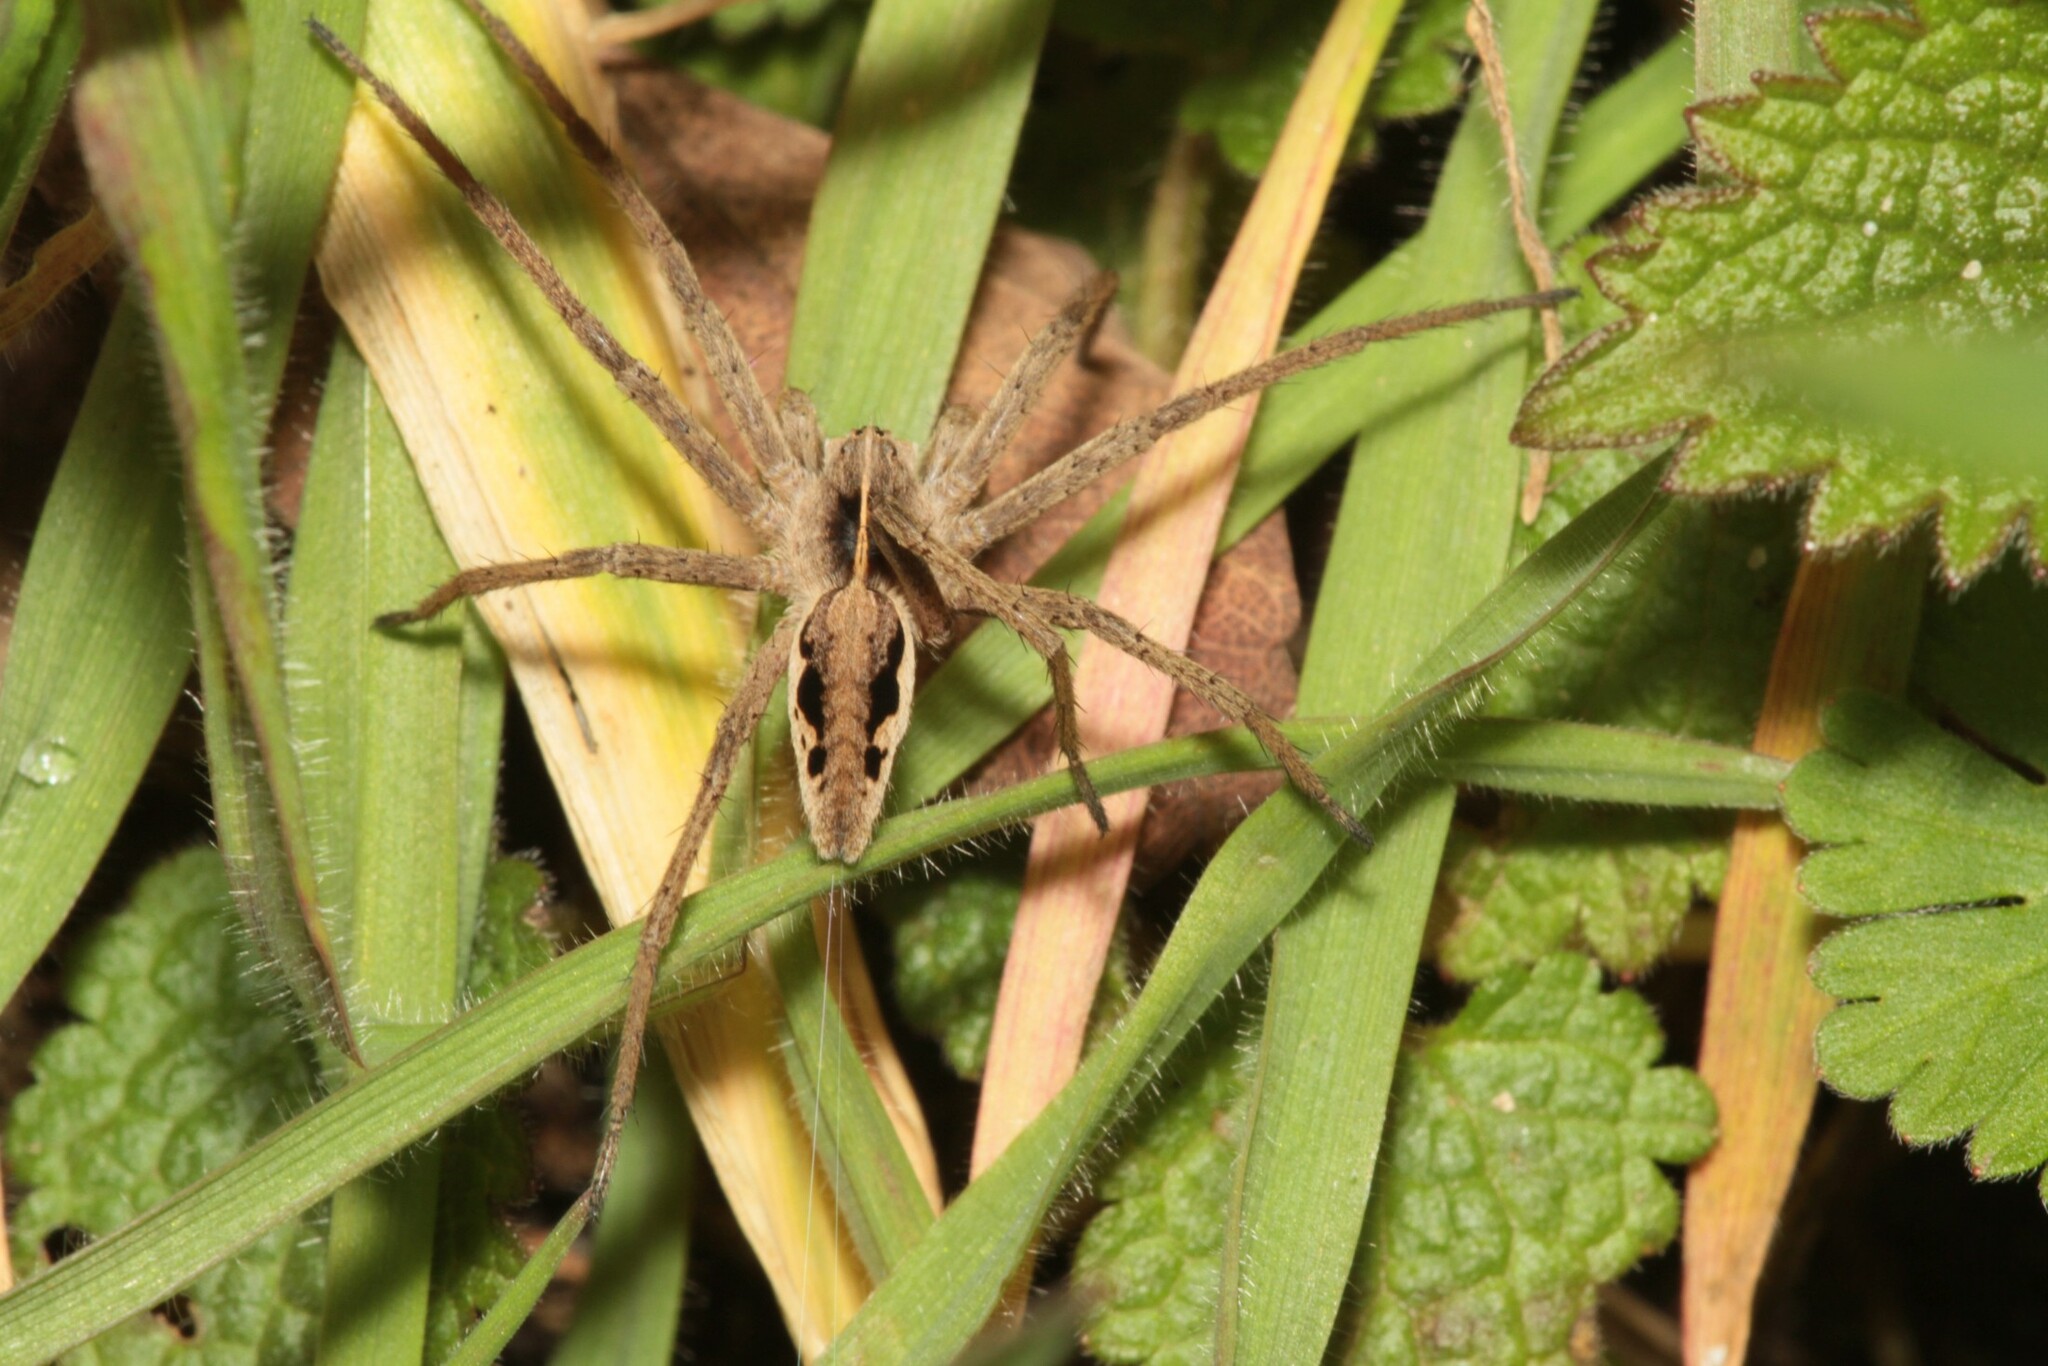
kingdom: Animalia
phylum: Arthropoda
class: Arachnida
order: Araneae
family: Pisauridae
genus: Pisaura
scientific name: Pisaura mirabilis
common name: Tent spider
